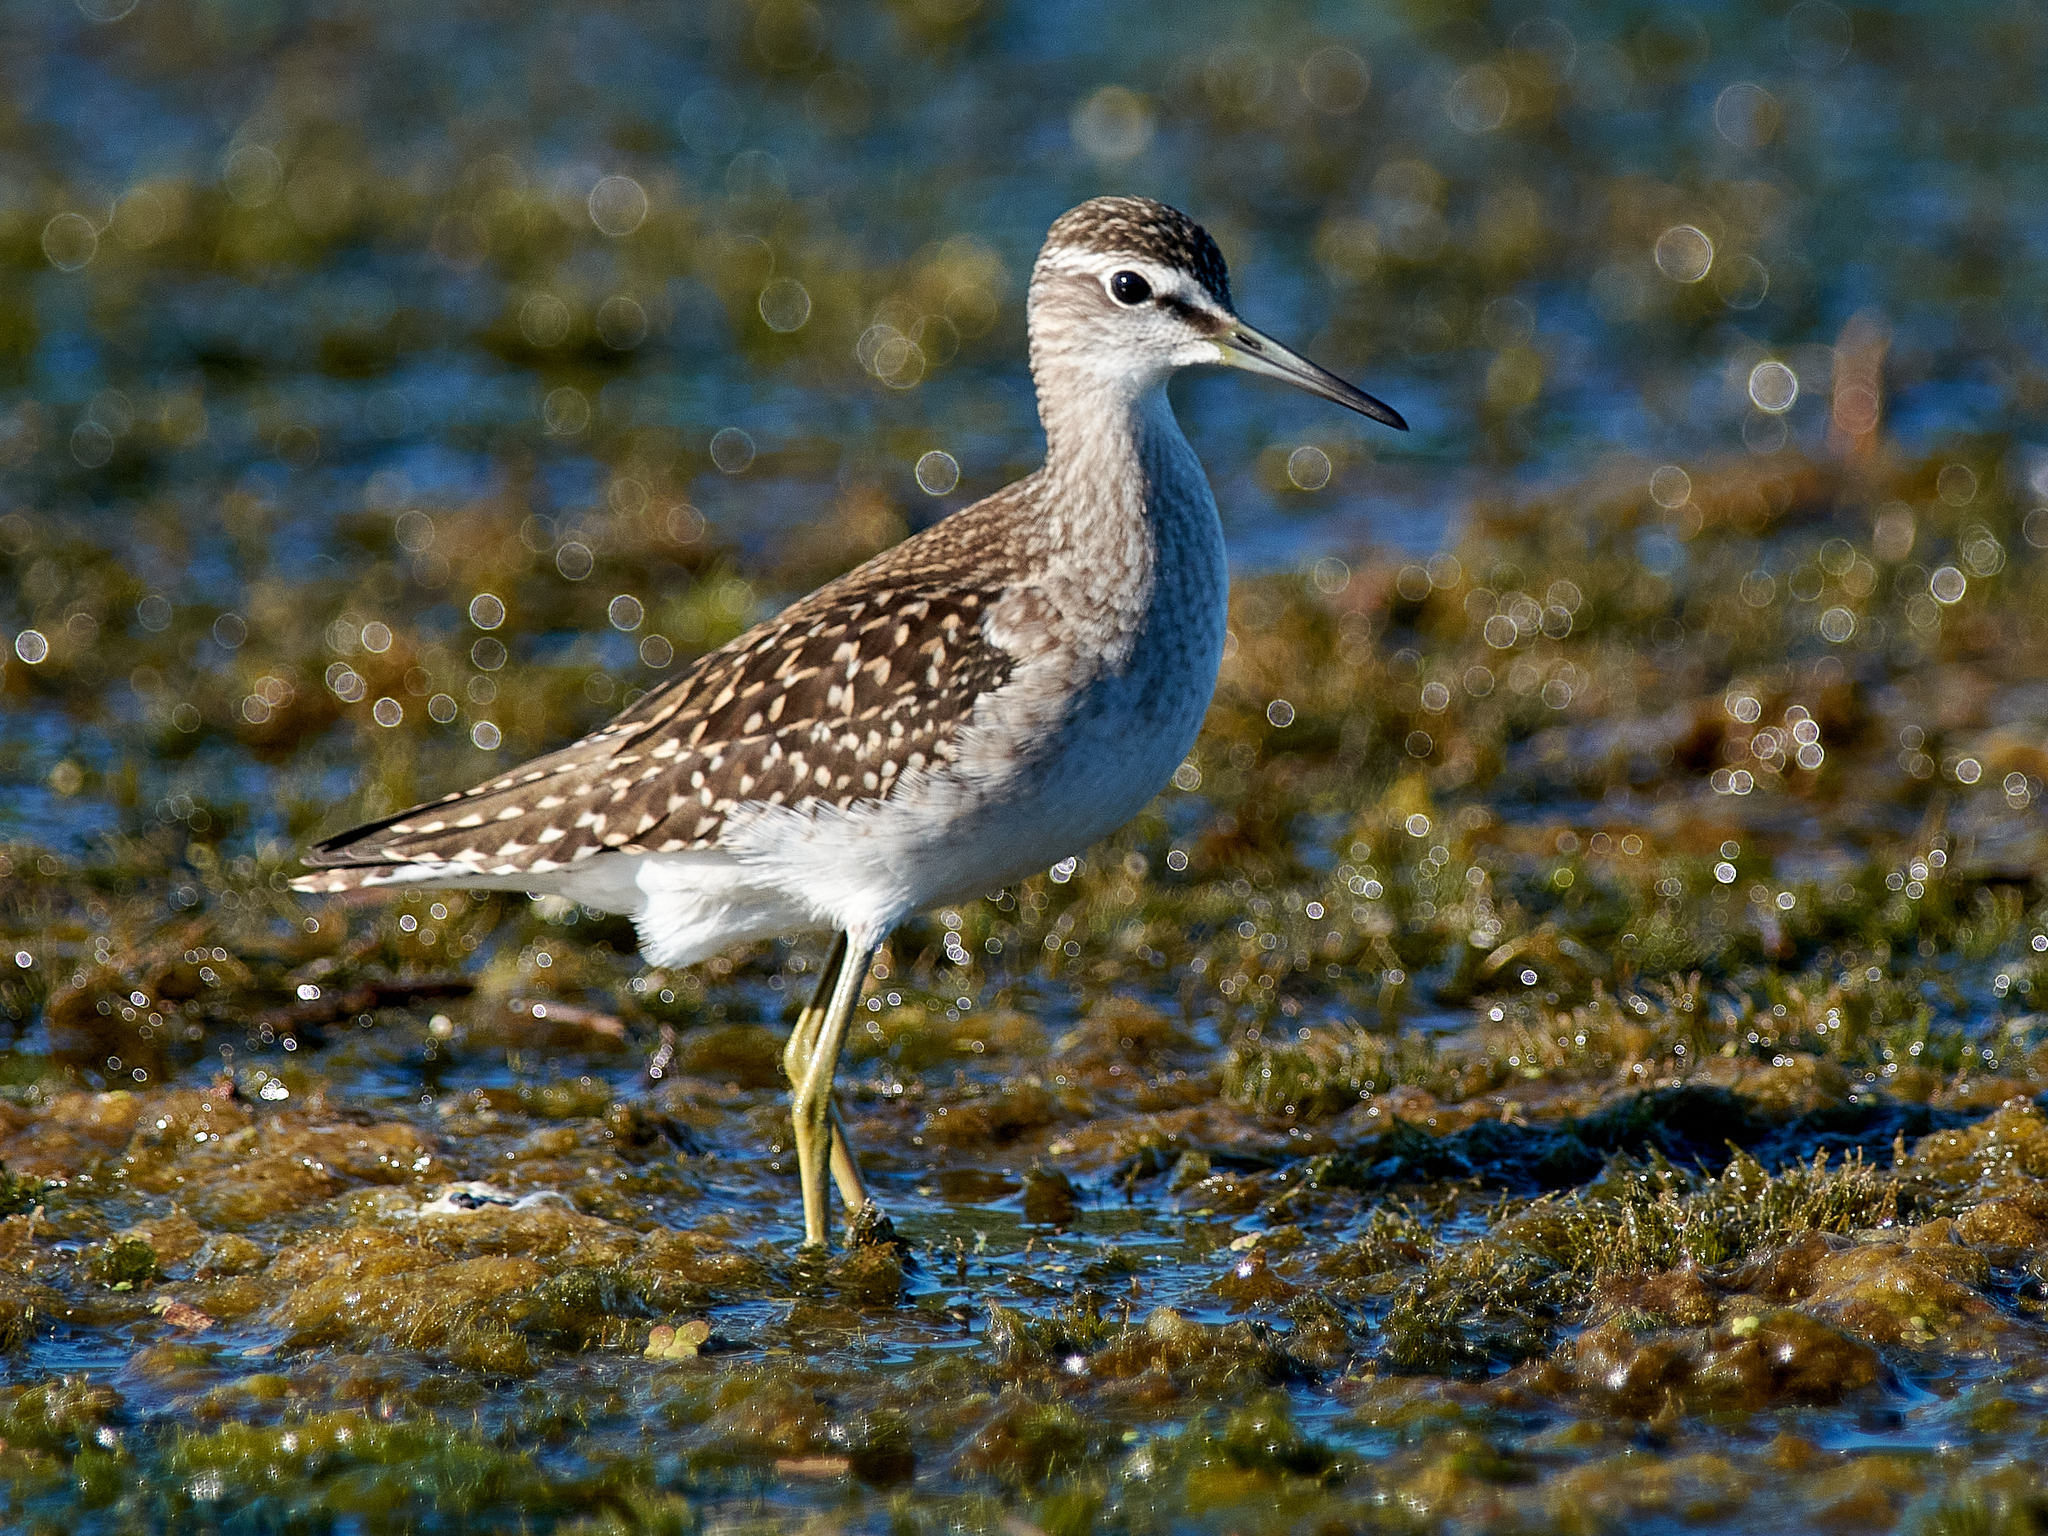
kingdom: Animalia
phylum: Chordata
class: Aves
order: Charadriiformes
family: Scolopacidae
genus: Tringa
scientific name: Tringa glareola
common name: Wood sandpiper
